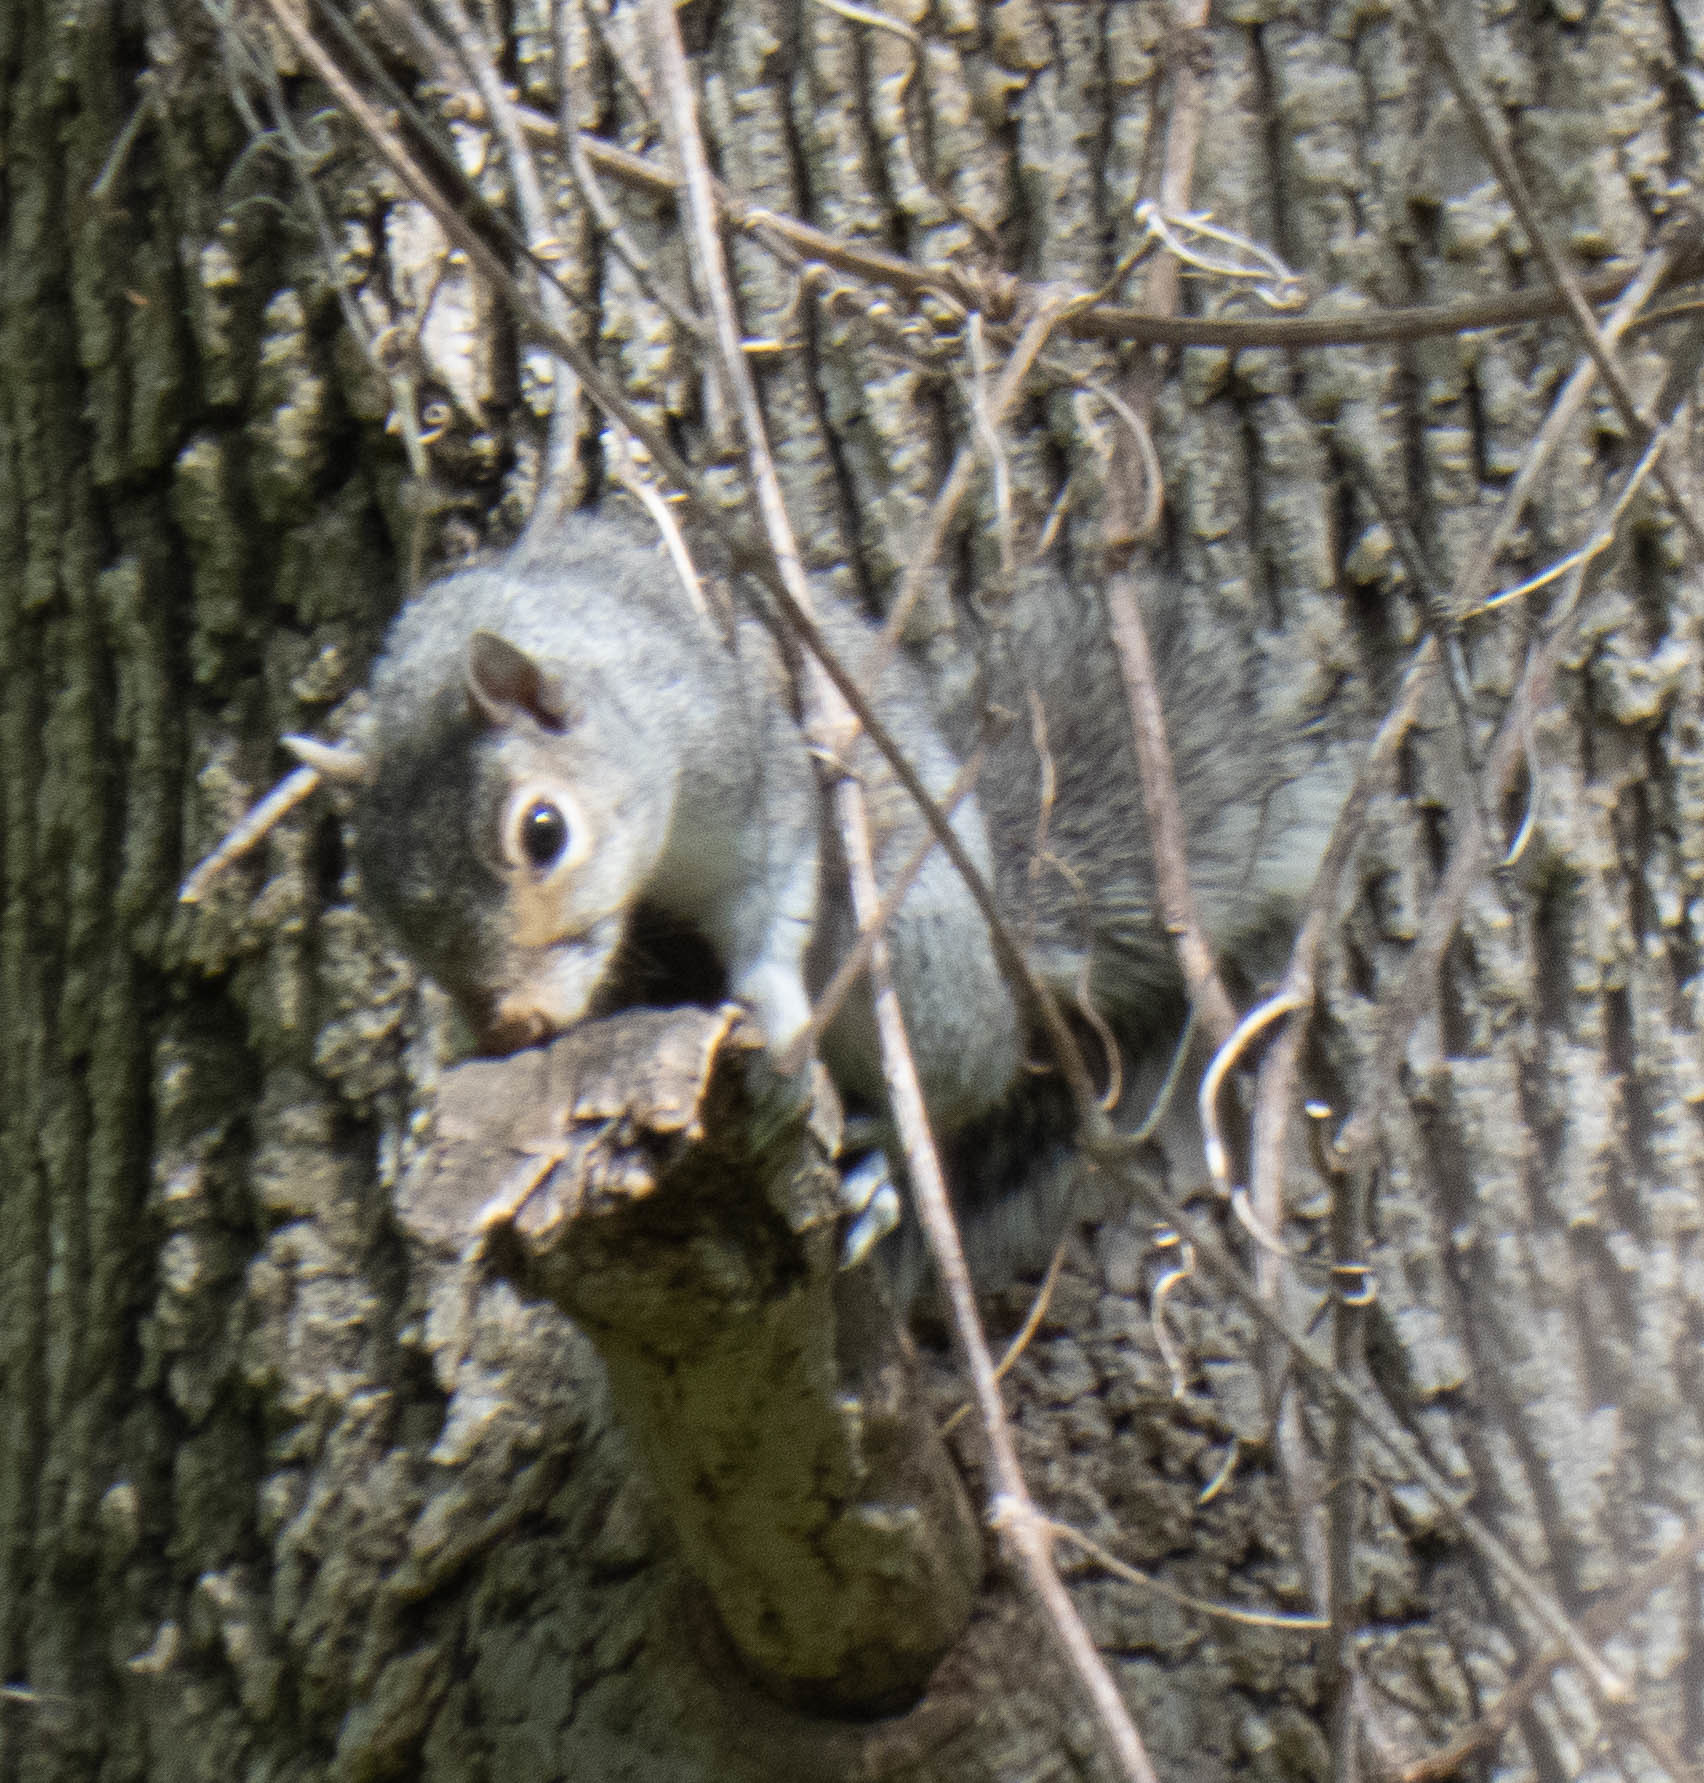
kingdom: Animalia
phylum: Chordata
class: Mammalia
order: Rodentia
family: Sciuridae
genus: Sciurus
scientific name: Sciurus carolinensis
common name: Eastern gray squirrel
